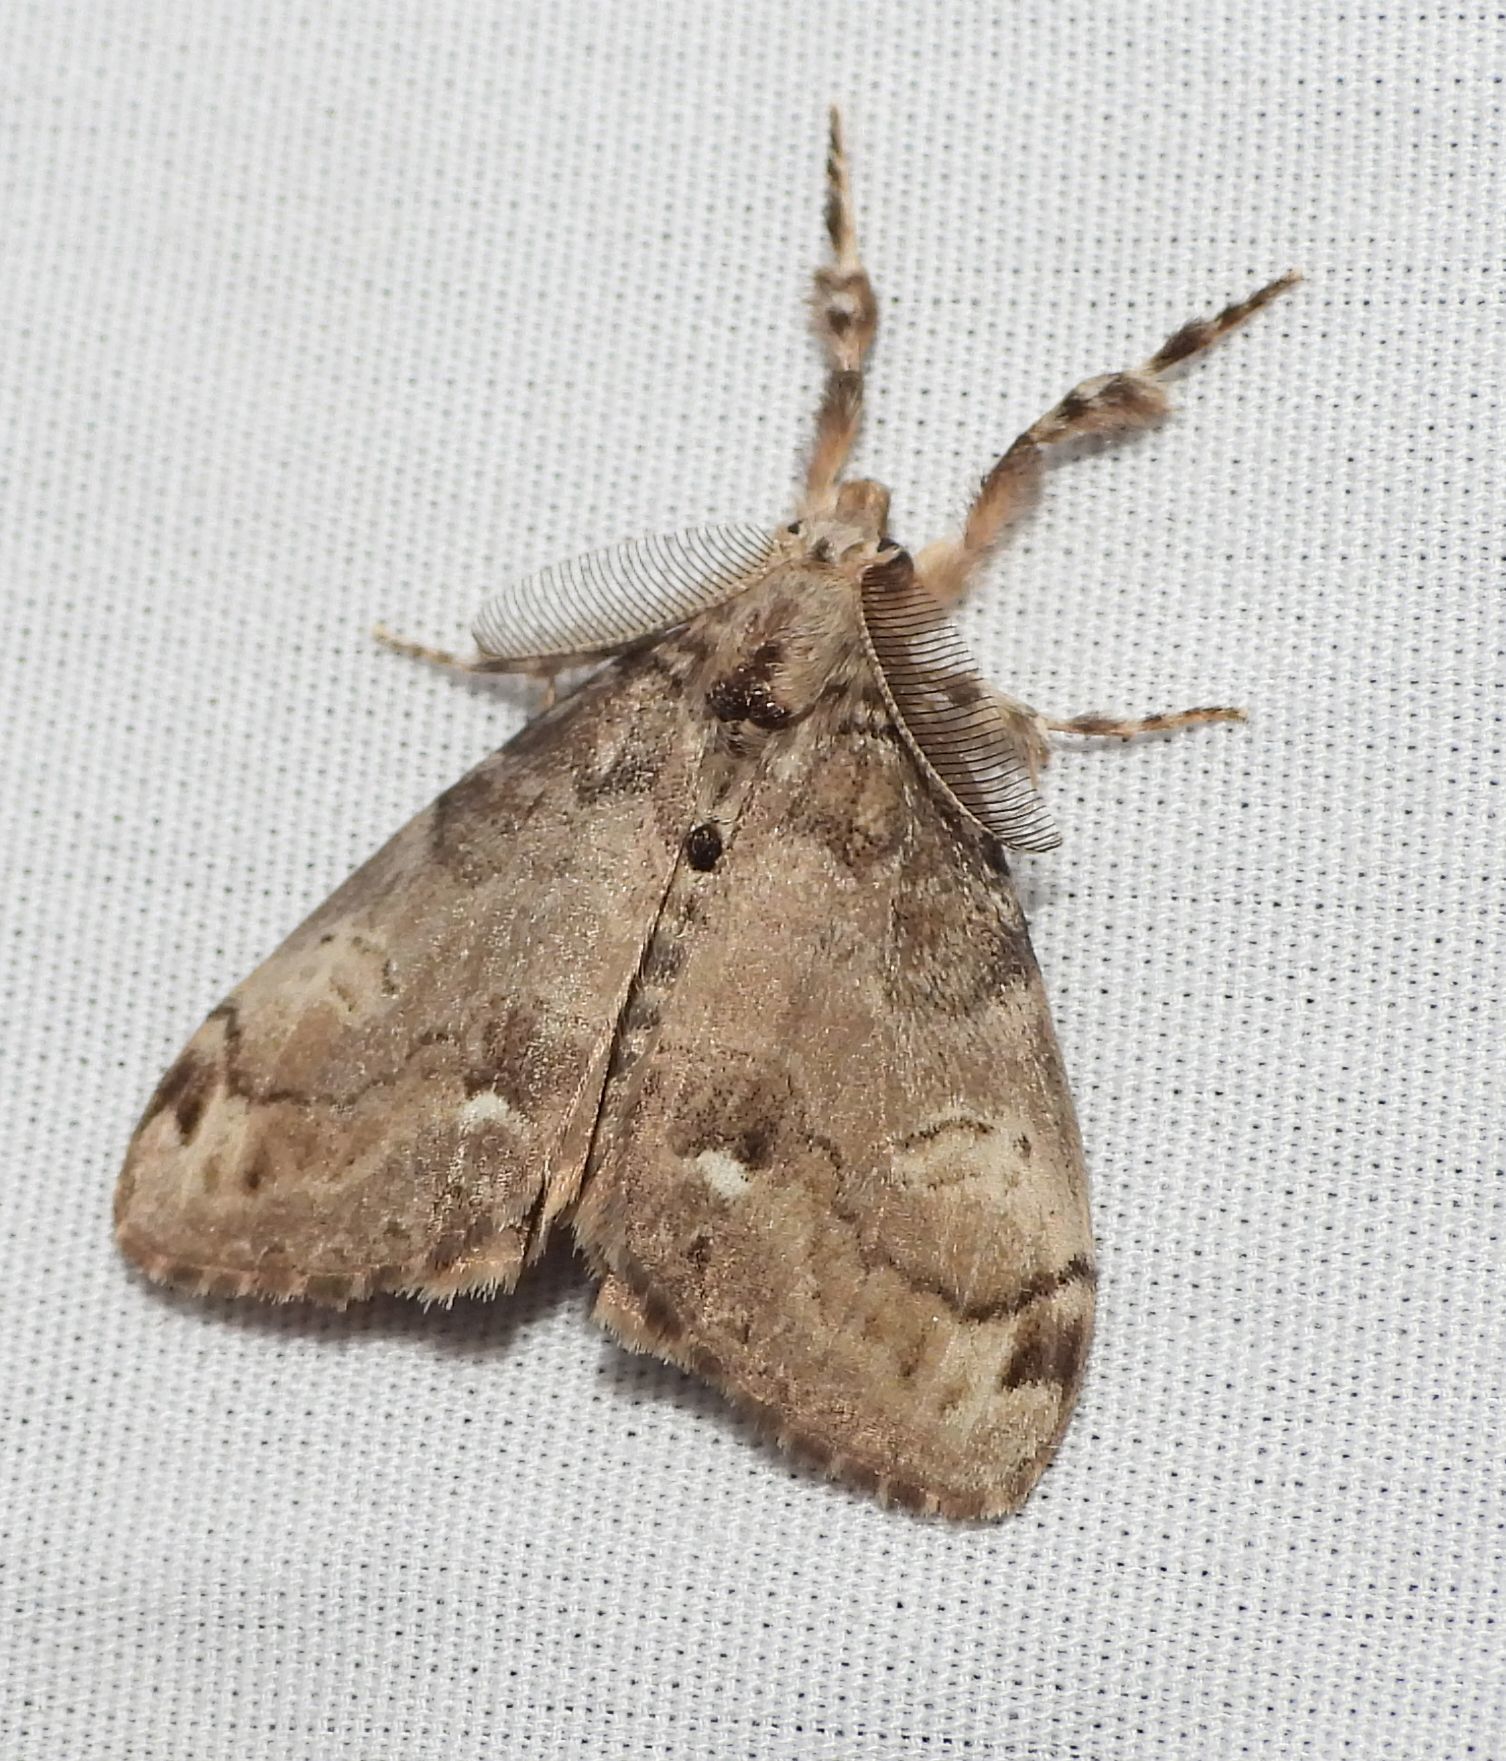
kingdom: Animalia
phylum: Arthropoda
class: Insecta
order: Lepidoptera
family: Erebidae
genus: Orgyia
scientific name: Orgyia leucostigma
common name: White-marked tussock moth
